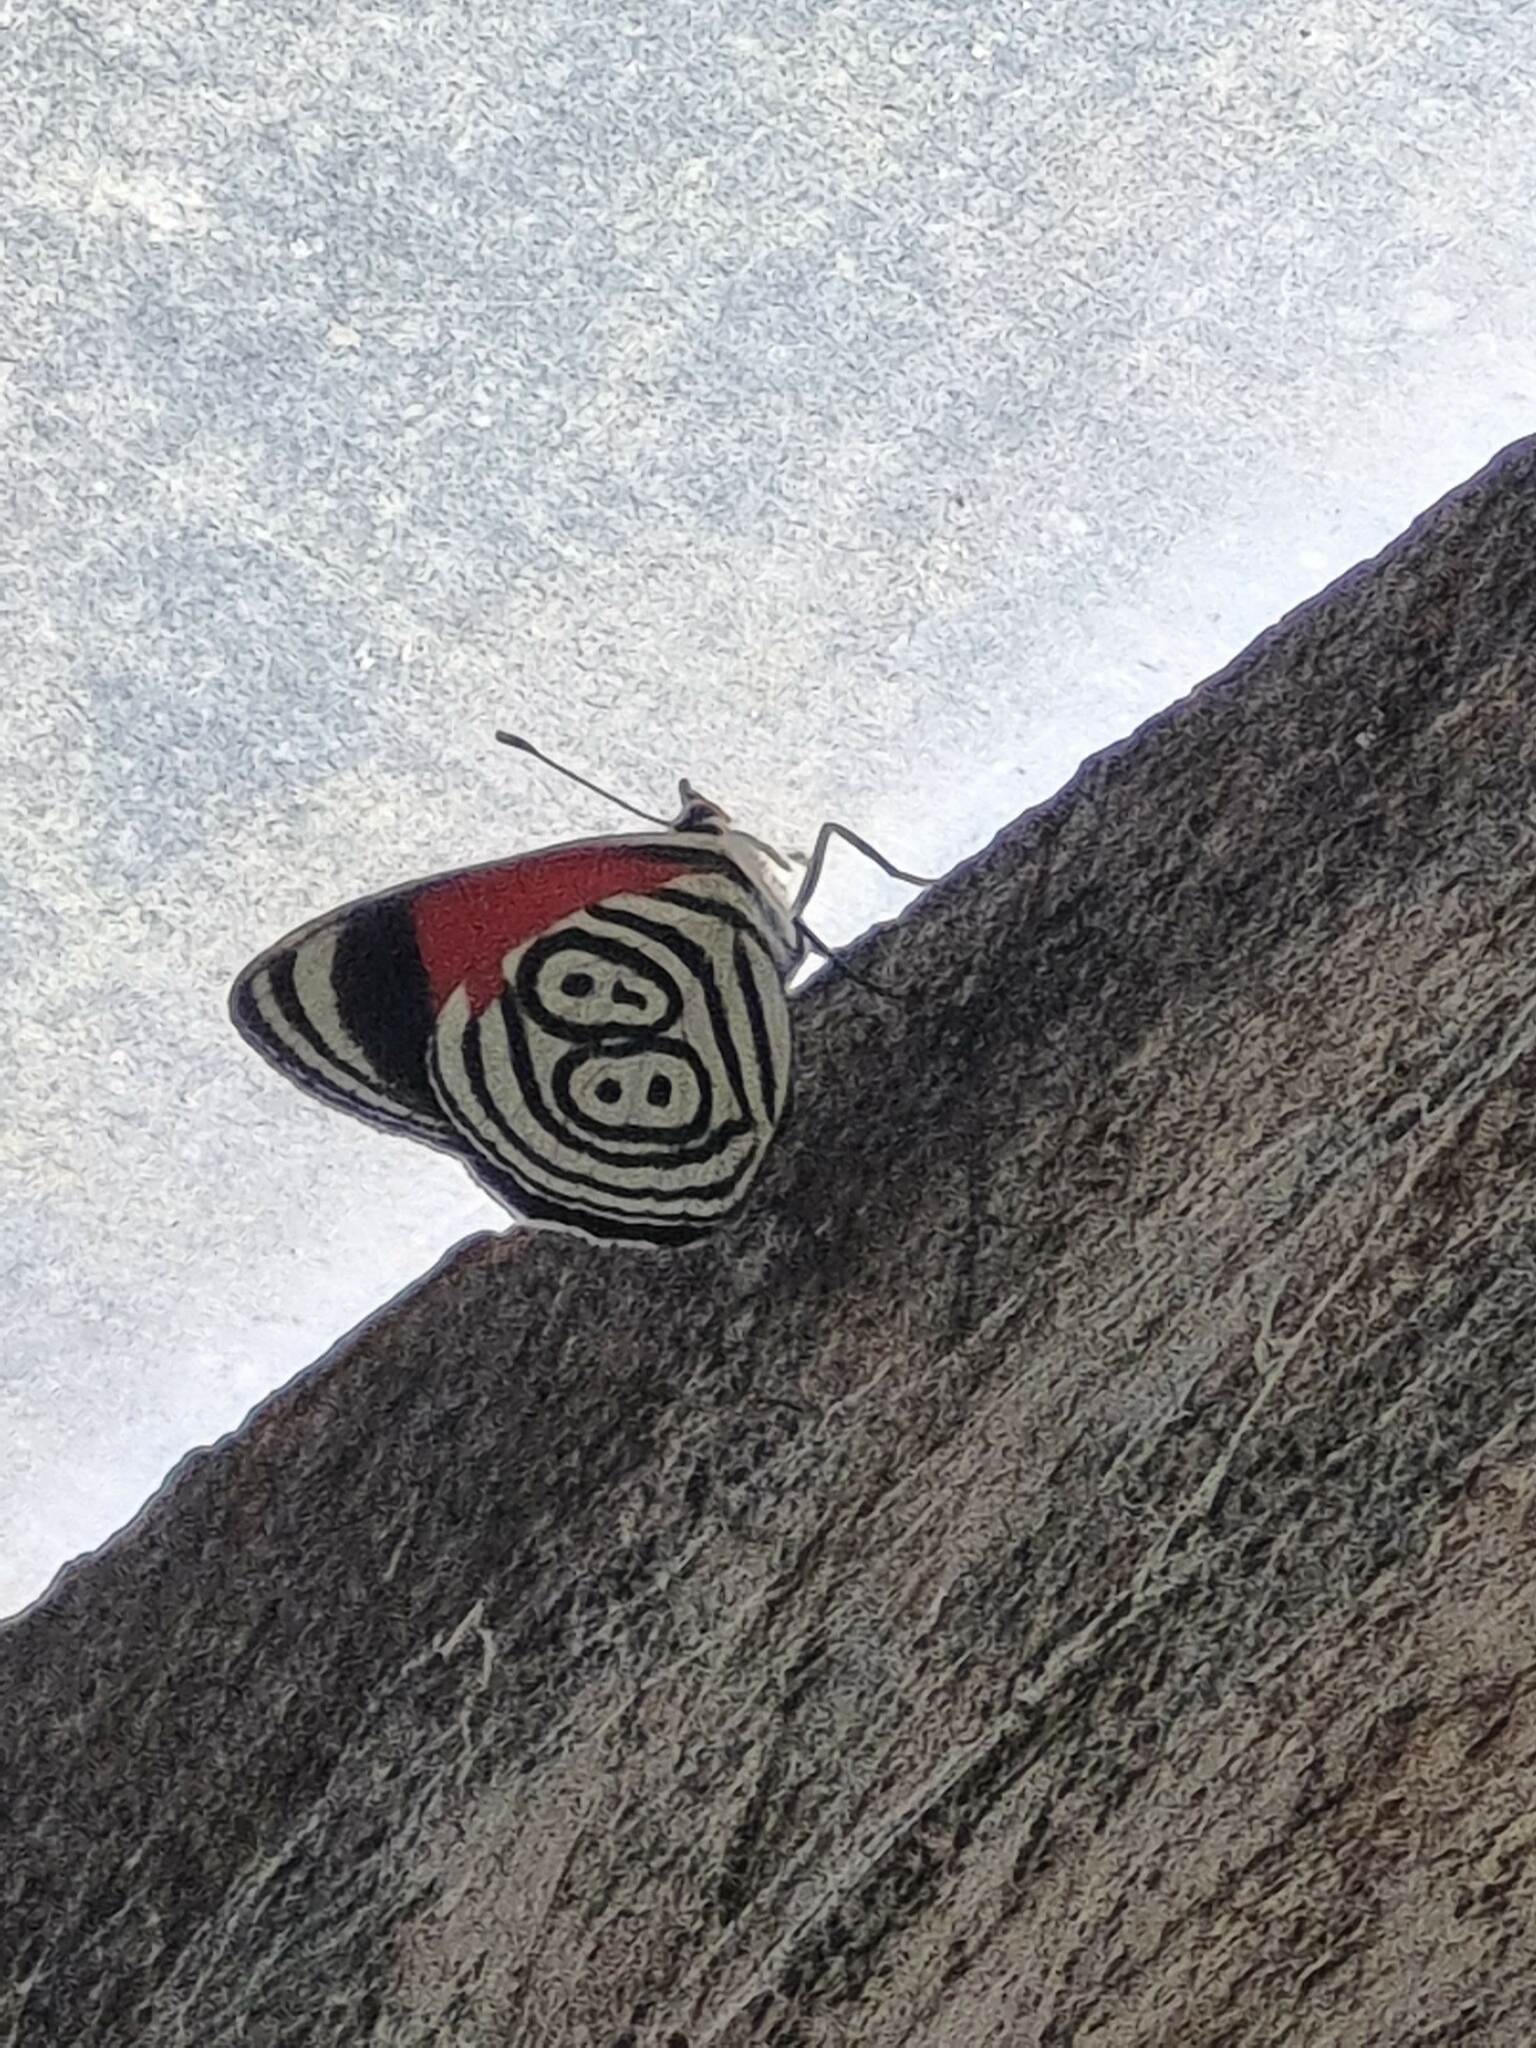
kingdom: Animalia
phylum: Arthropoda
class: Insecta
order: Lepidoptera
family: Nymphalidae
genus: Diaethria
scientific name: Diaethria clymena
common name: Widespread eighty-eight
